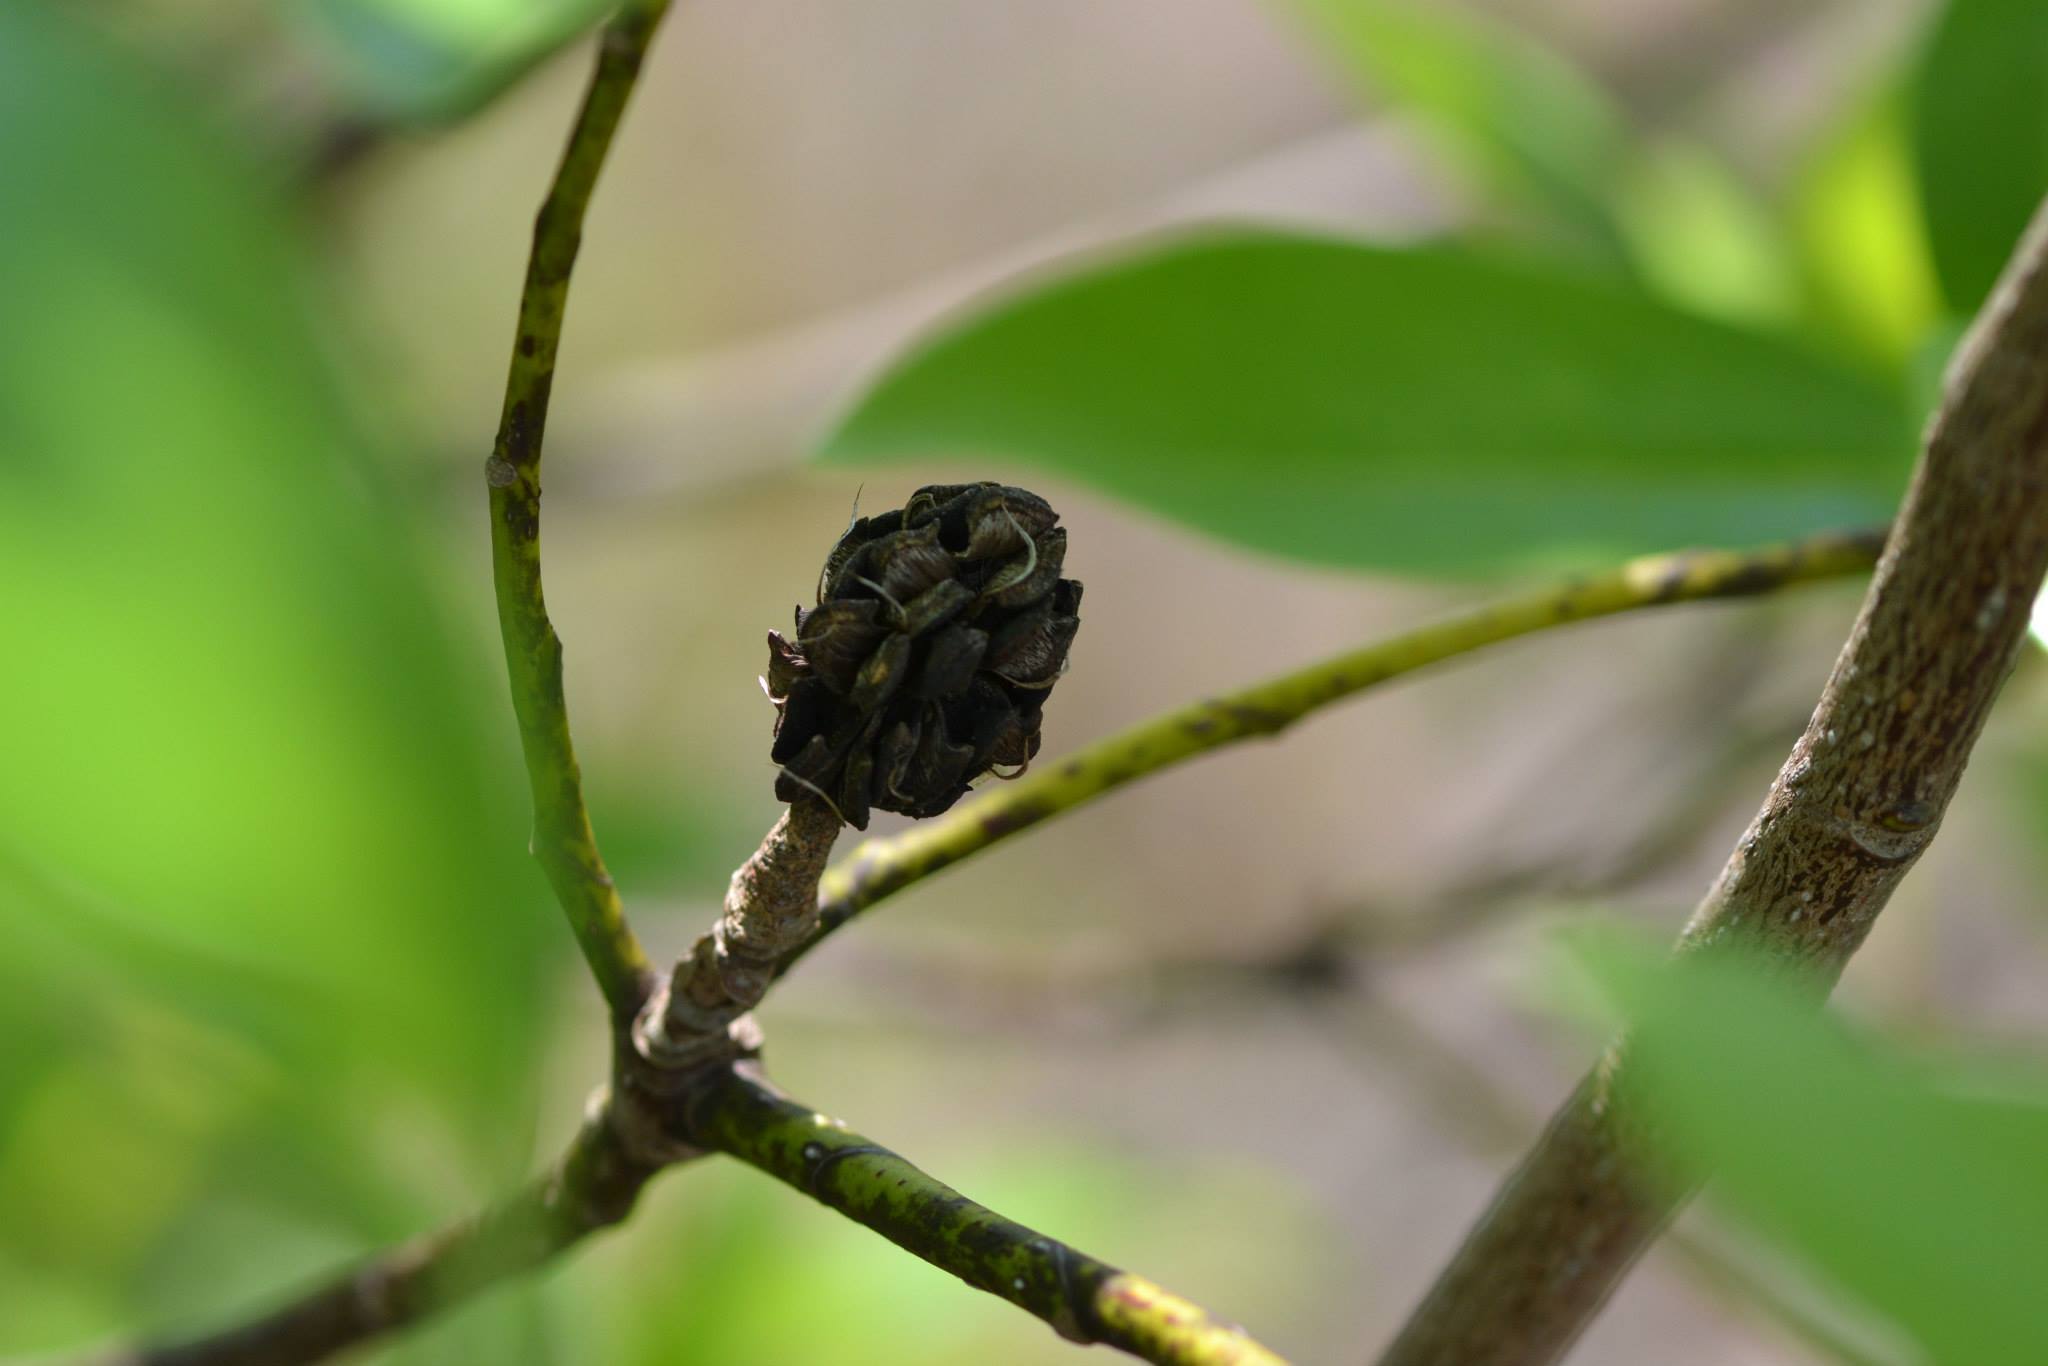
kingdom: Plantae
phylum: Tracheophyta
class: Magnoliopsida
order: Magnoliales
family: Magnoliaceae
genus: Magnolia
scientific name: Magnolia virginiana
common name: Swamp bay
